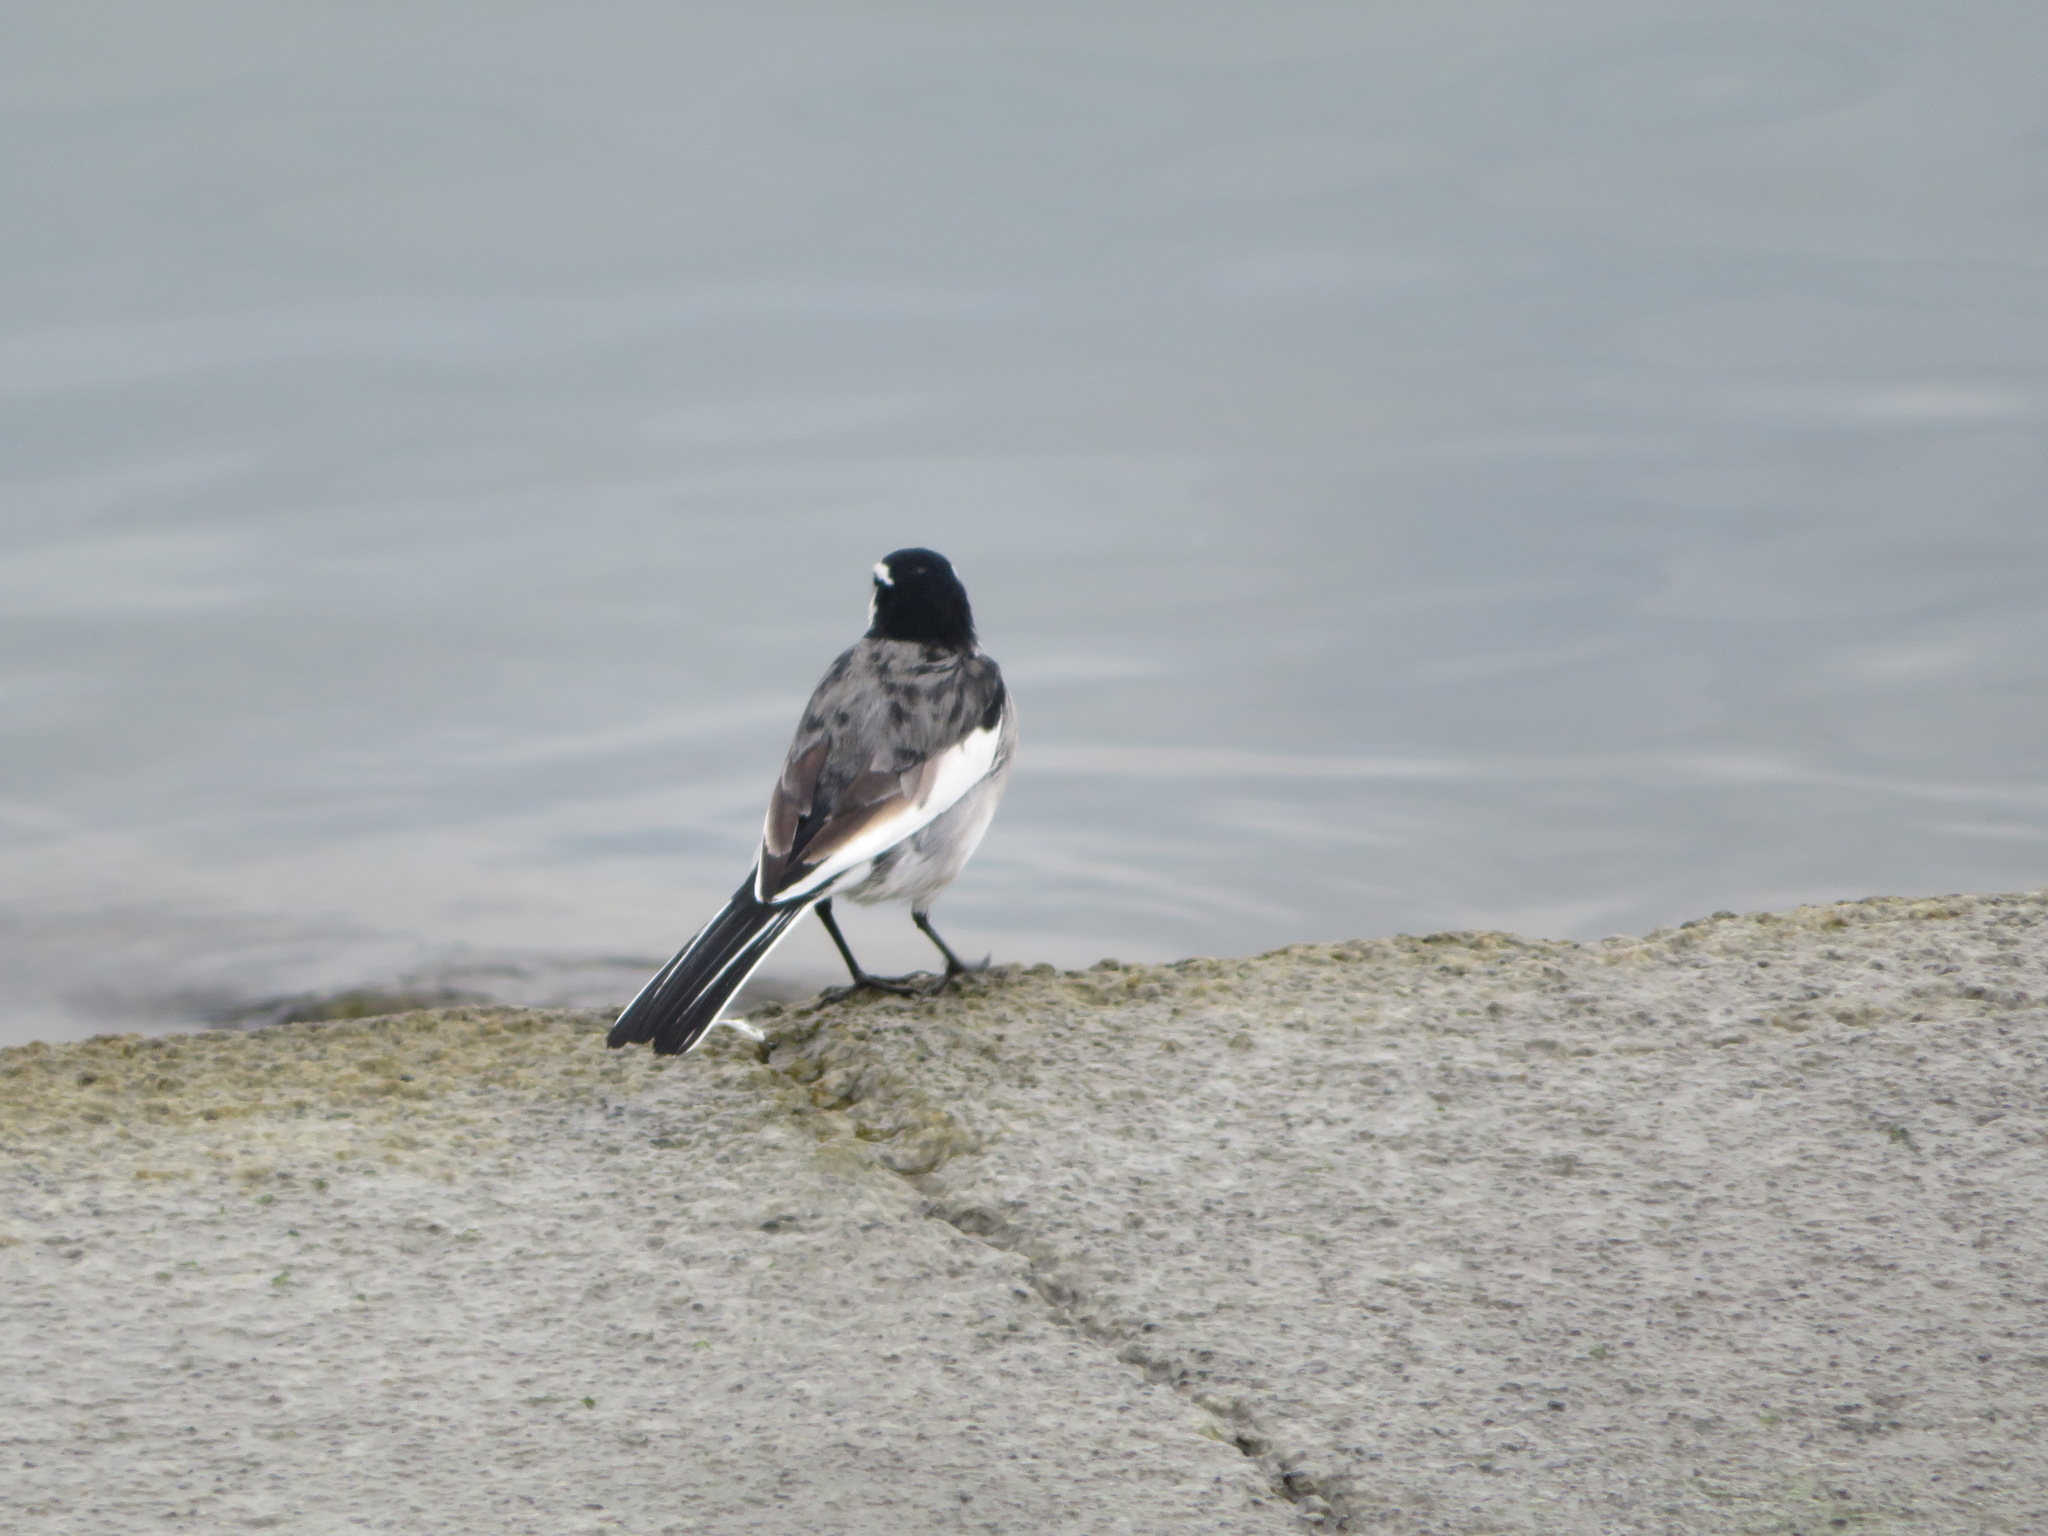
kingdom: Animalia
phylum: Chordata
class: Aves
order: Passeriformes
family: Motacillidae
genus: Motacilla
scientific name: Motacilla alba
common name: White wagtail
